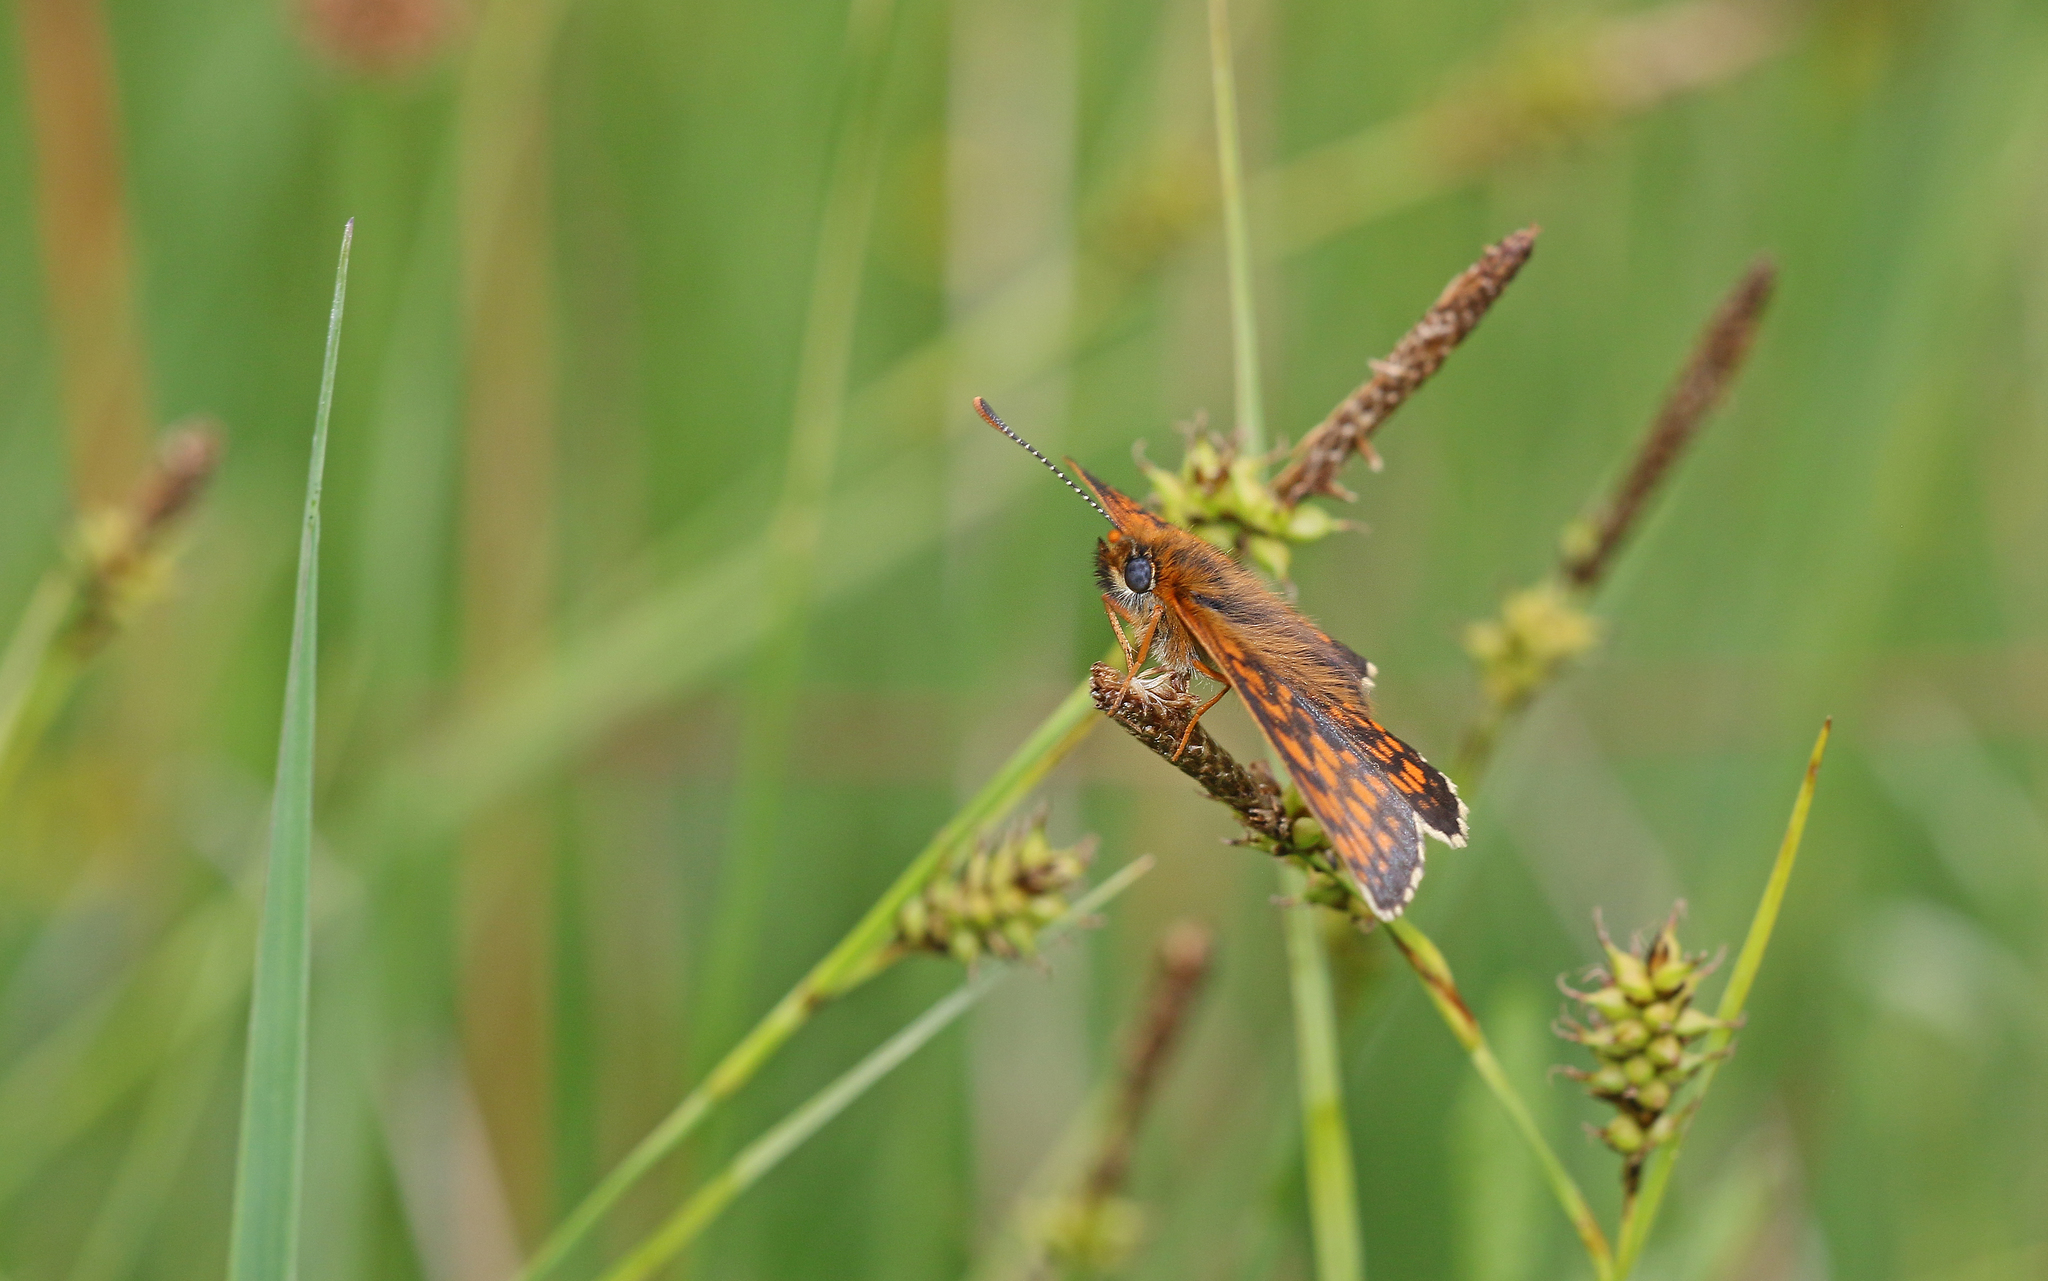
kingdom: Animalia
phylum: Arthropoda
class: Insecta
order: Lepidoptera
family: Nymphalidae
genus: Melitaea
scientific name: Melitaea athalia
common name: Heath fritillary
